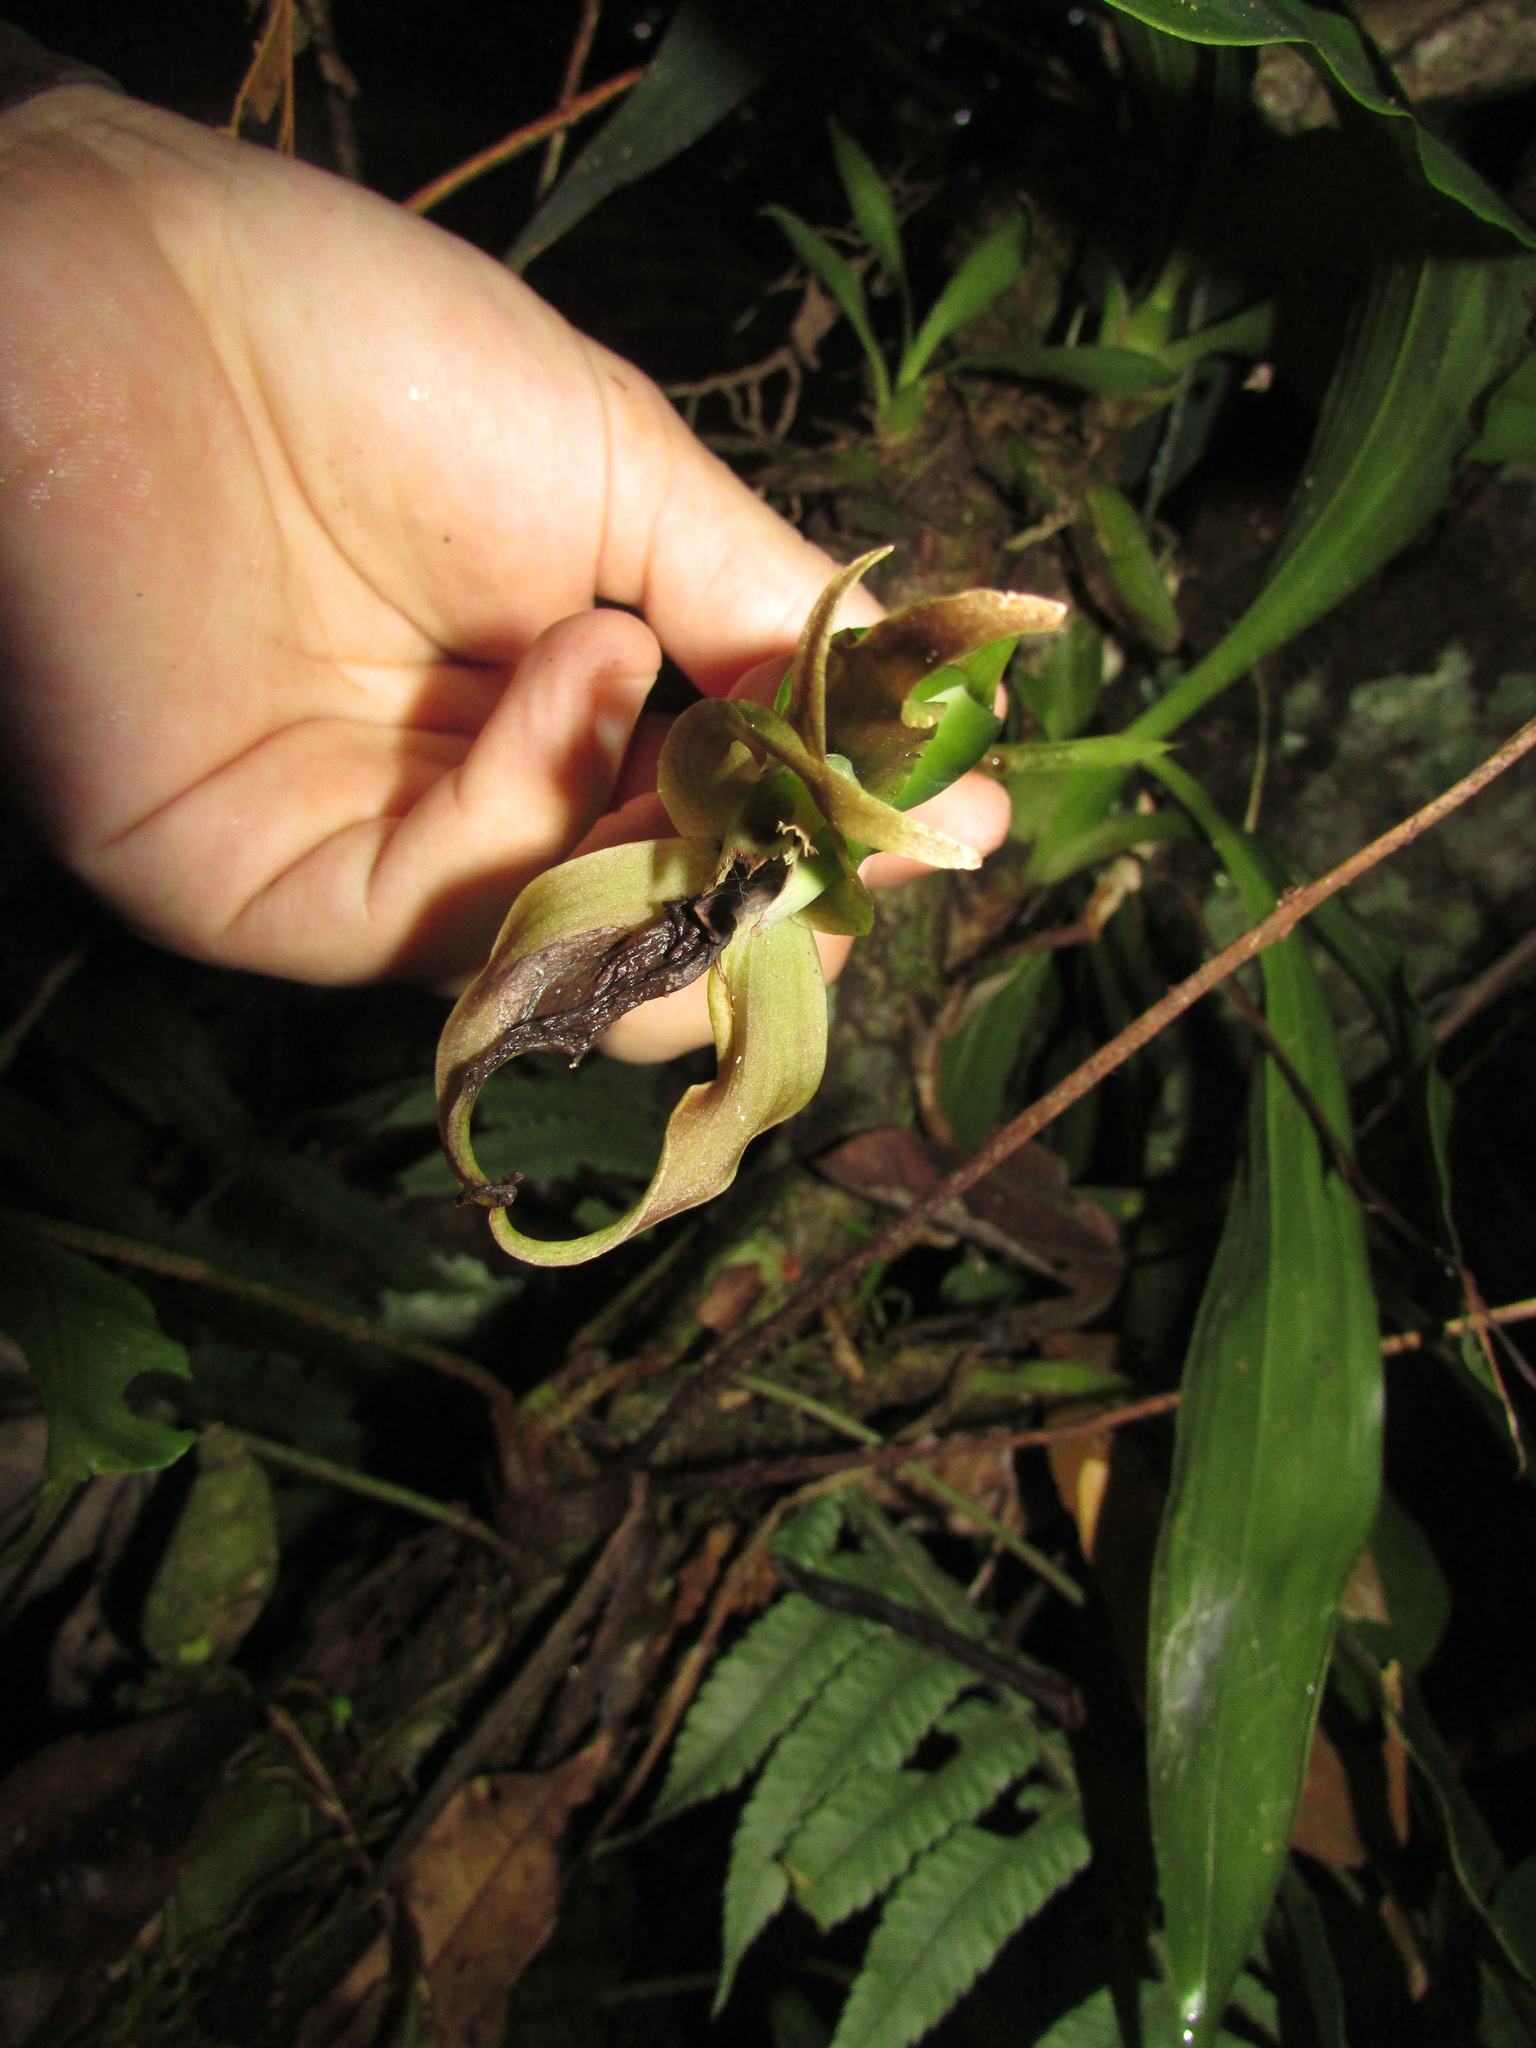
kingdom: Plantae
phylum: Tracheophyta
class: Liliopsida
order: Asparagales
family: Orchidaceae
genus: Zygosepalum
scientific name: Zygosepalum labiosum
